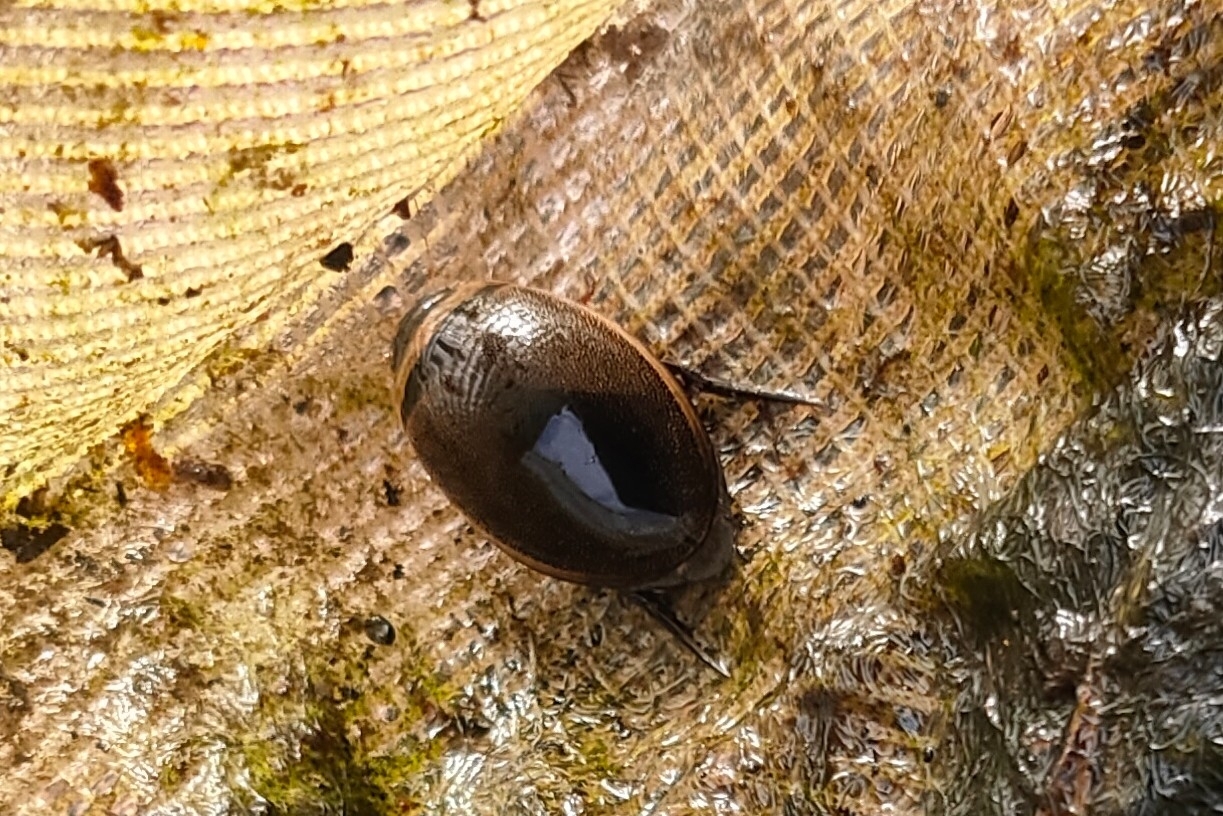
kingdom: Animalia
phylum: Arthropoda
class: Insecta
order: Coleoptera
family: Dytiscidae
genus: Graphoderus
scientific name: Graphoderus adamsii
